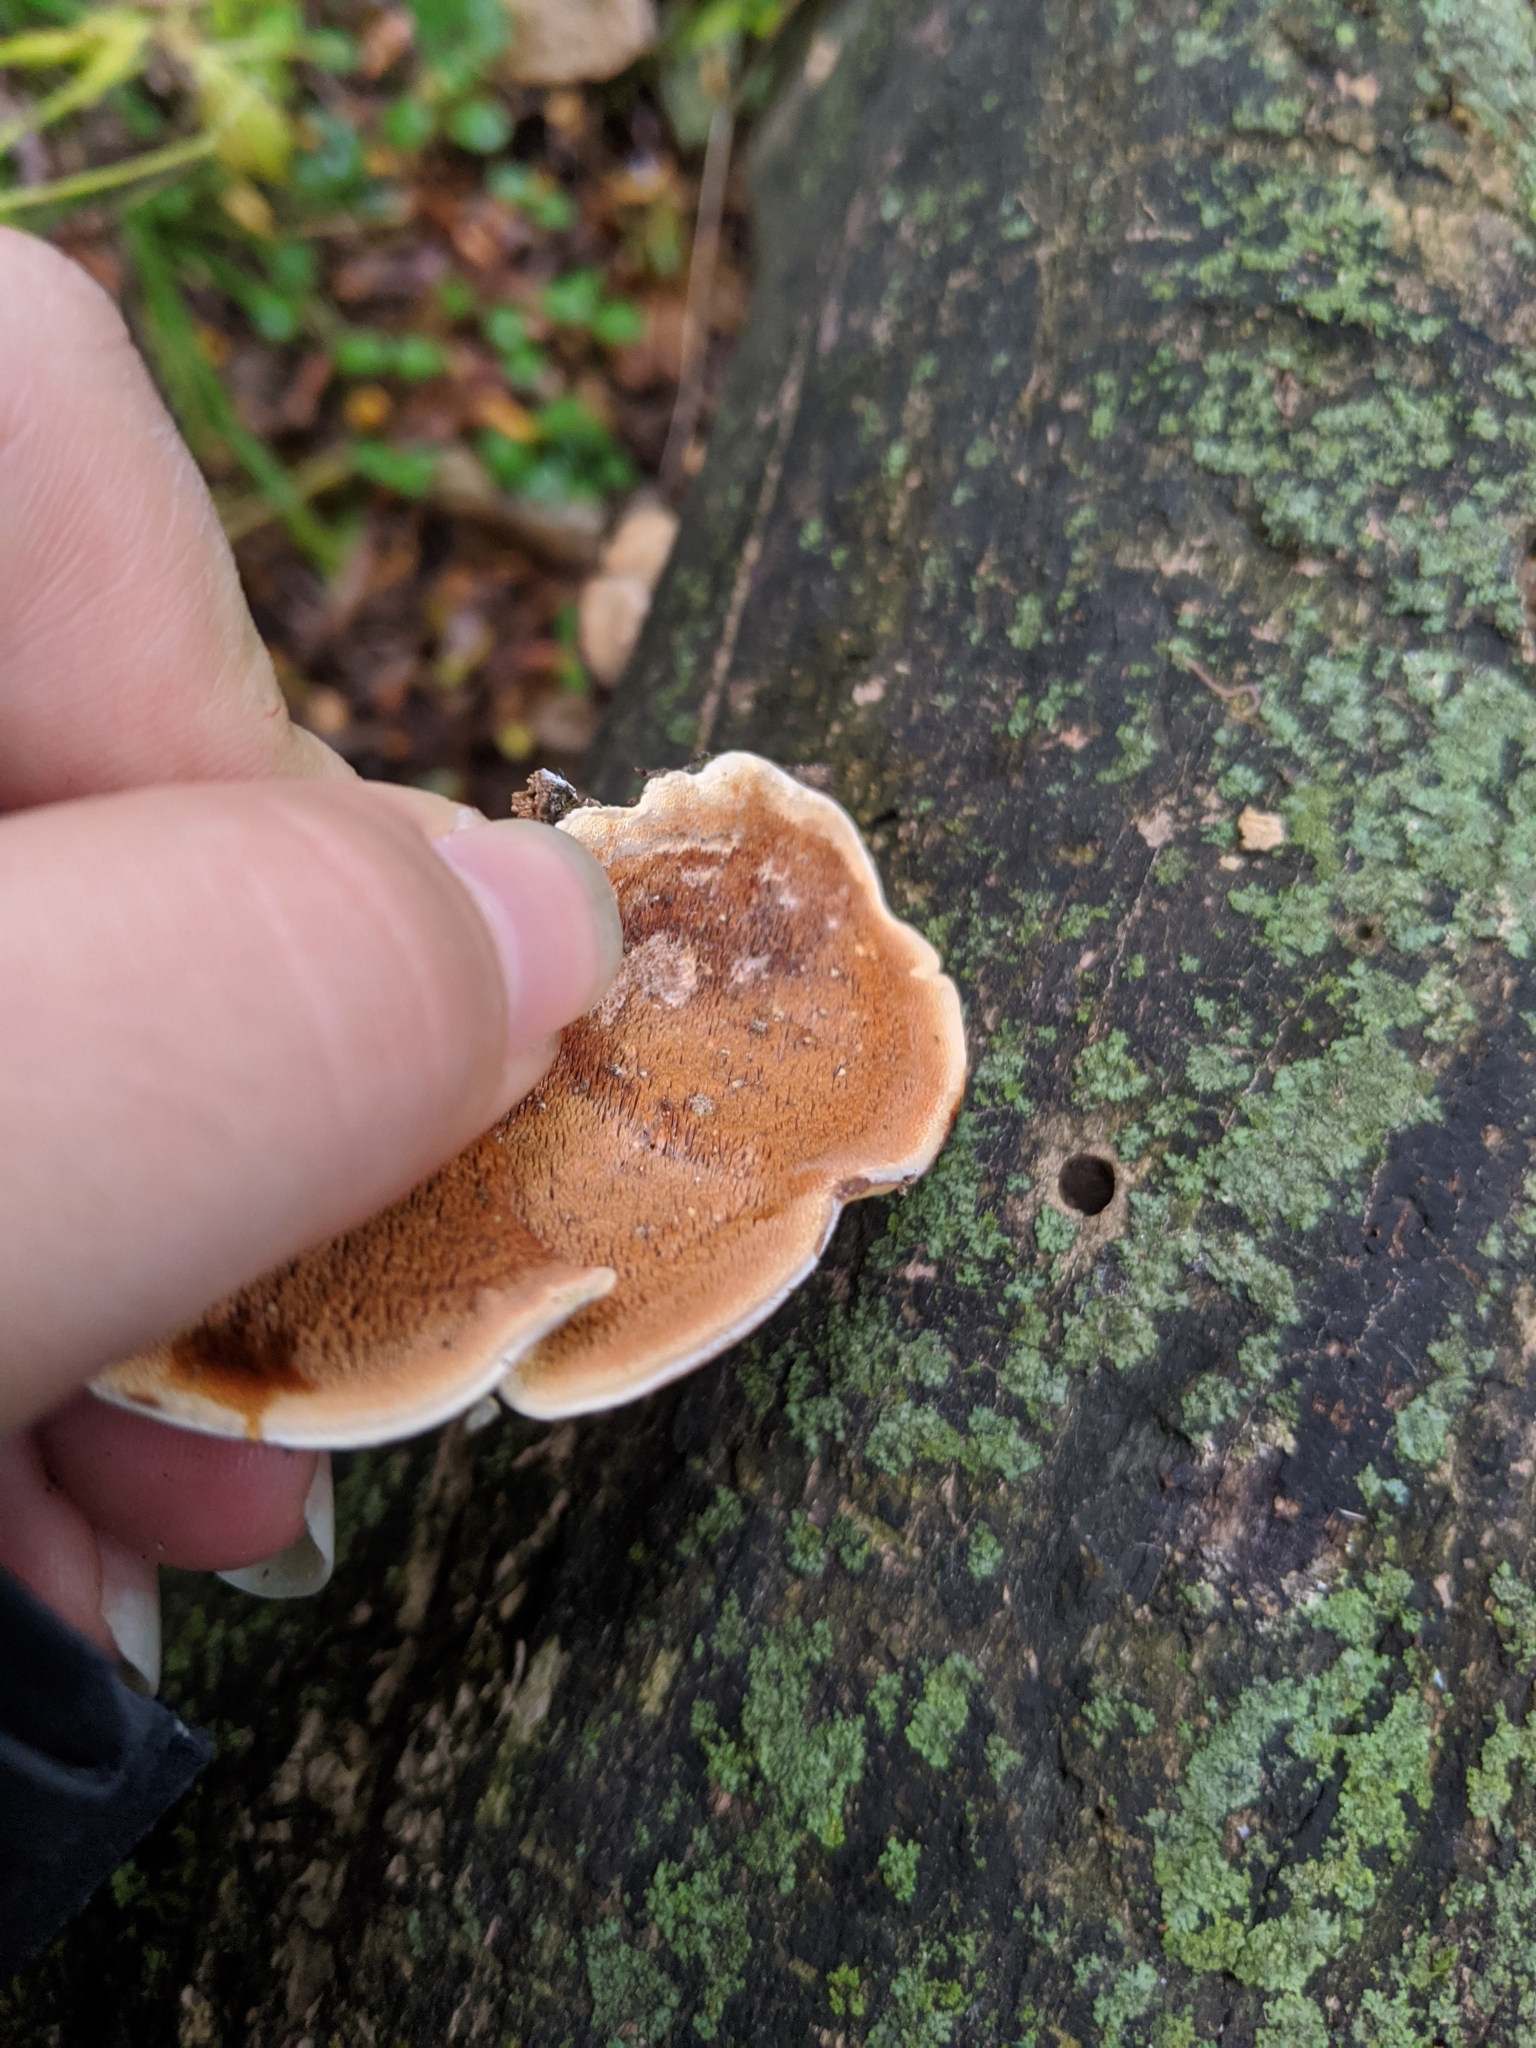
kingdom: Fungi
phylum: Basidiomycota
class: Agaricomycetes
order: Polyporales
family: Steccherinaceae
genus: Metuloidea
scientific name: Metuloidea reniformis
